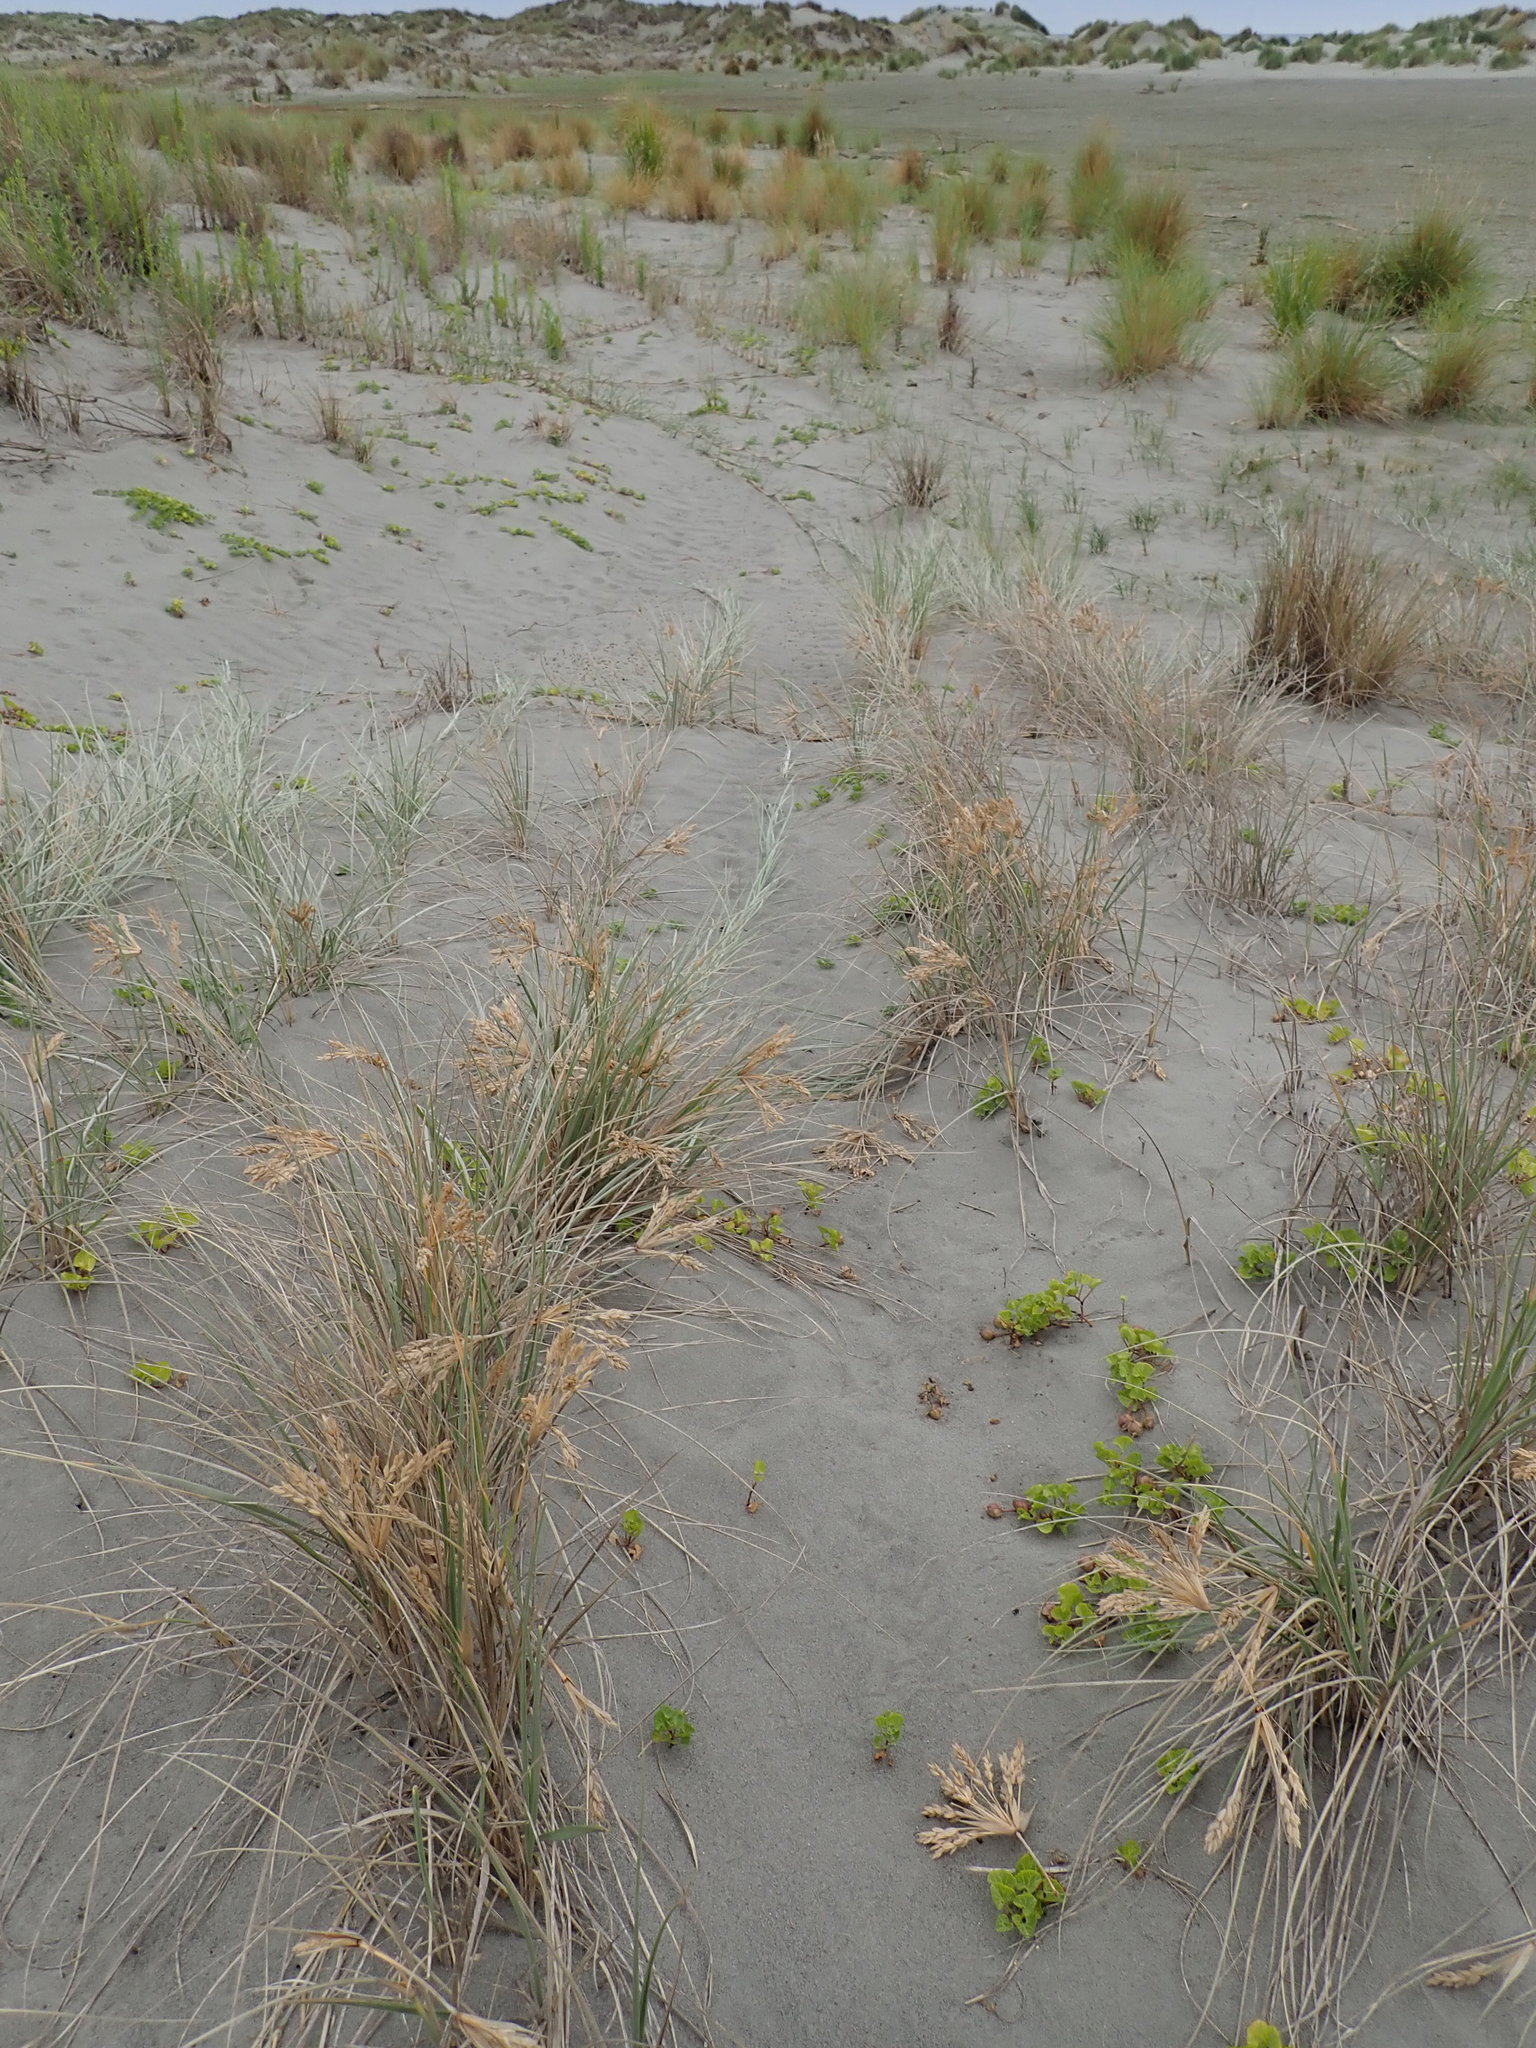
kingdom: Plantae
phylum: Tracheophyta
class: Liliopsida
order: Poales
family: Poaceae
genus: Spinifex
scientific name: Spinifex sericeus
